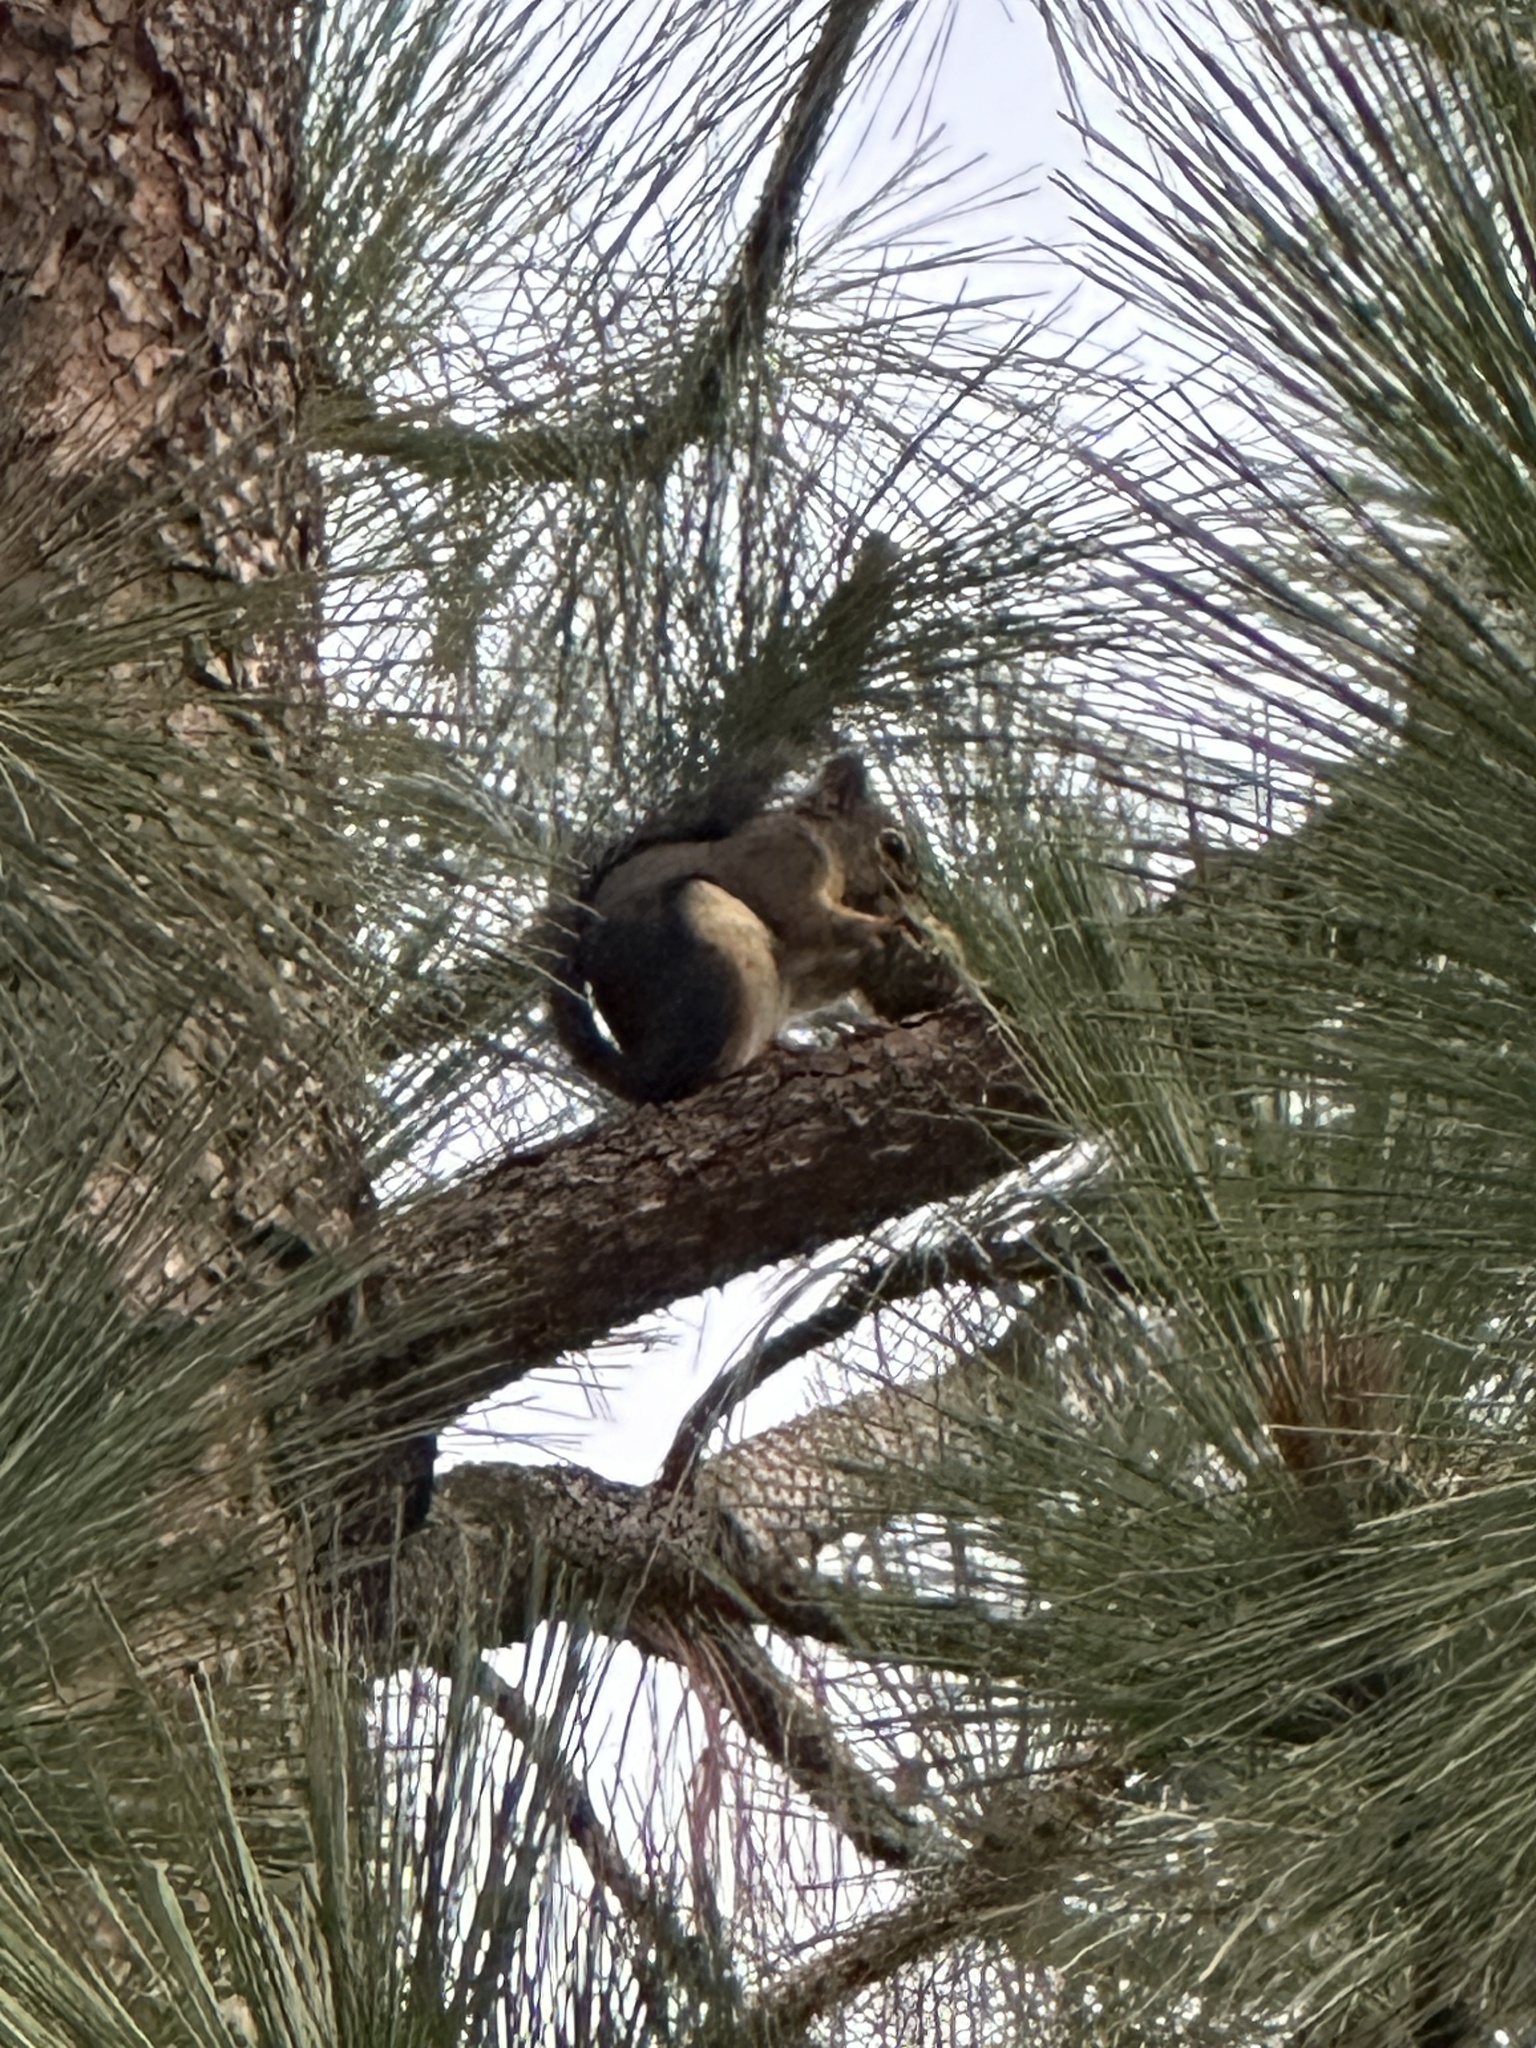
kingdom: Animalia
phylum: Chordata
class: Mammalia
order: Rodentia
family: Sciuridae
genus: Tamiasciurus
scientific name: Tamiasciurus douglasii
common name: Douglas's squirrel
